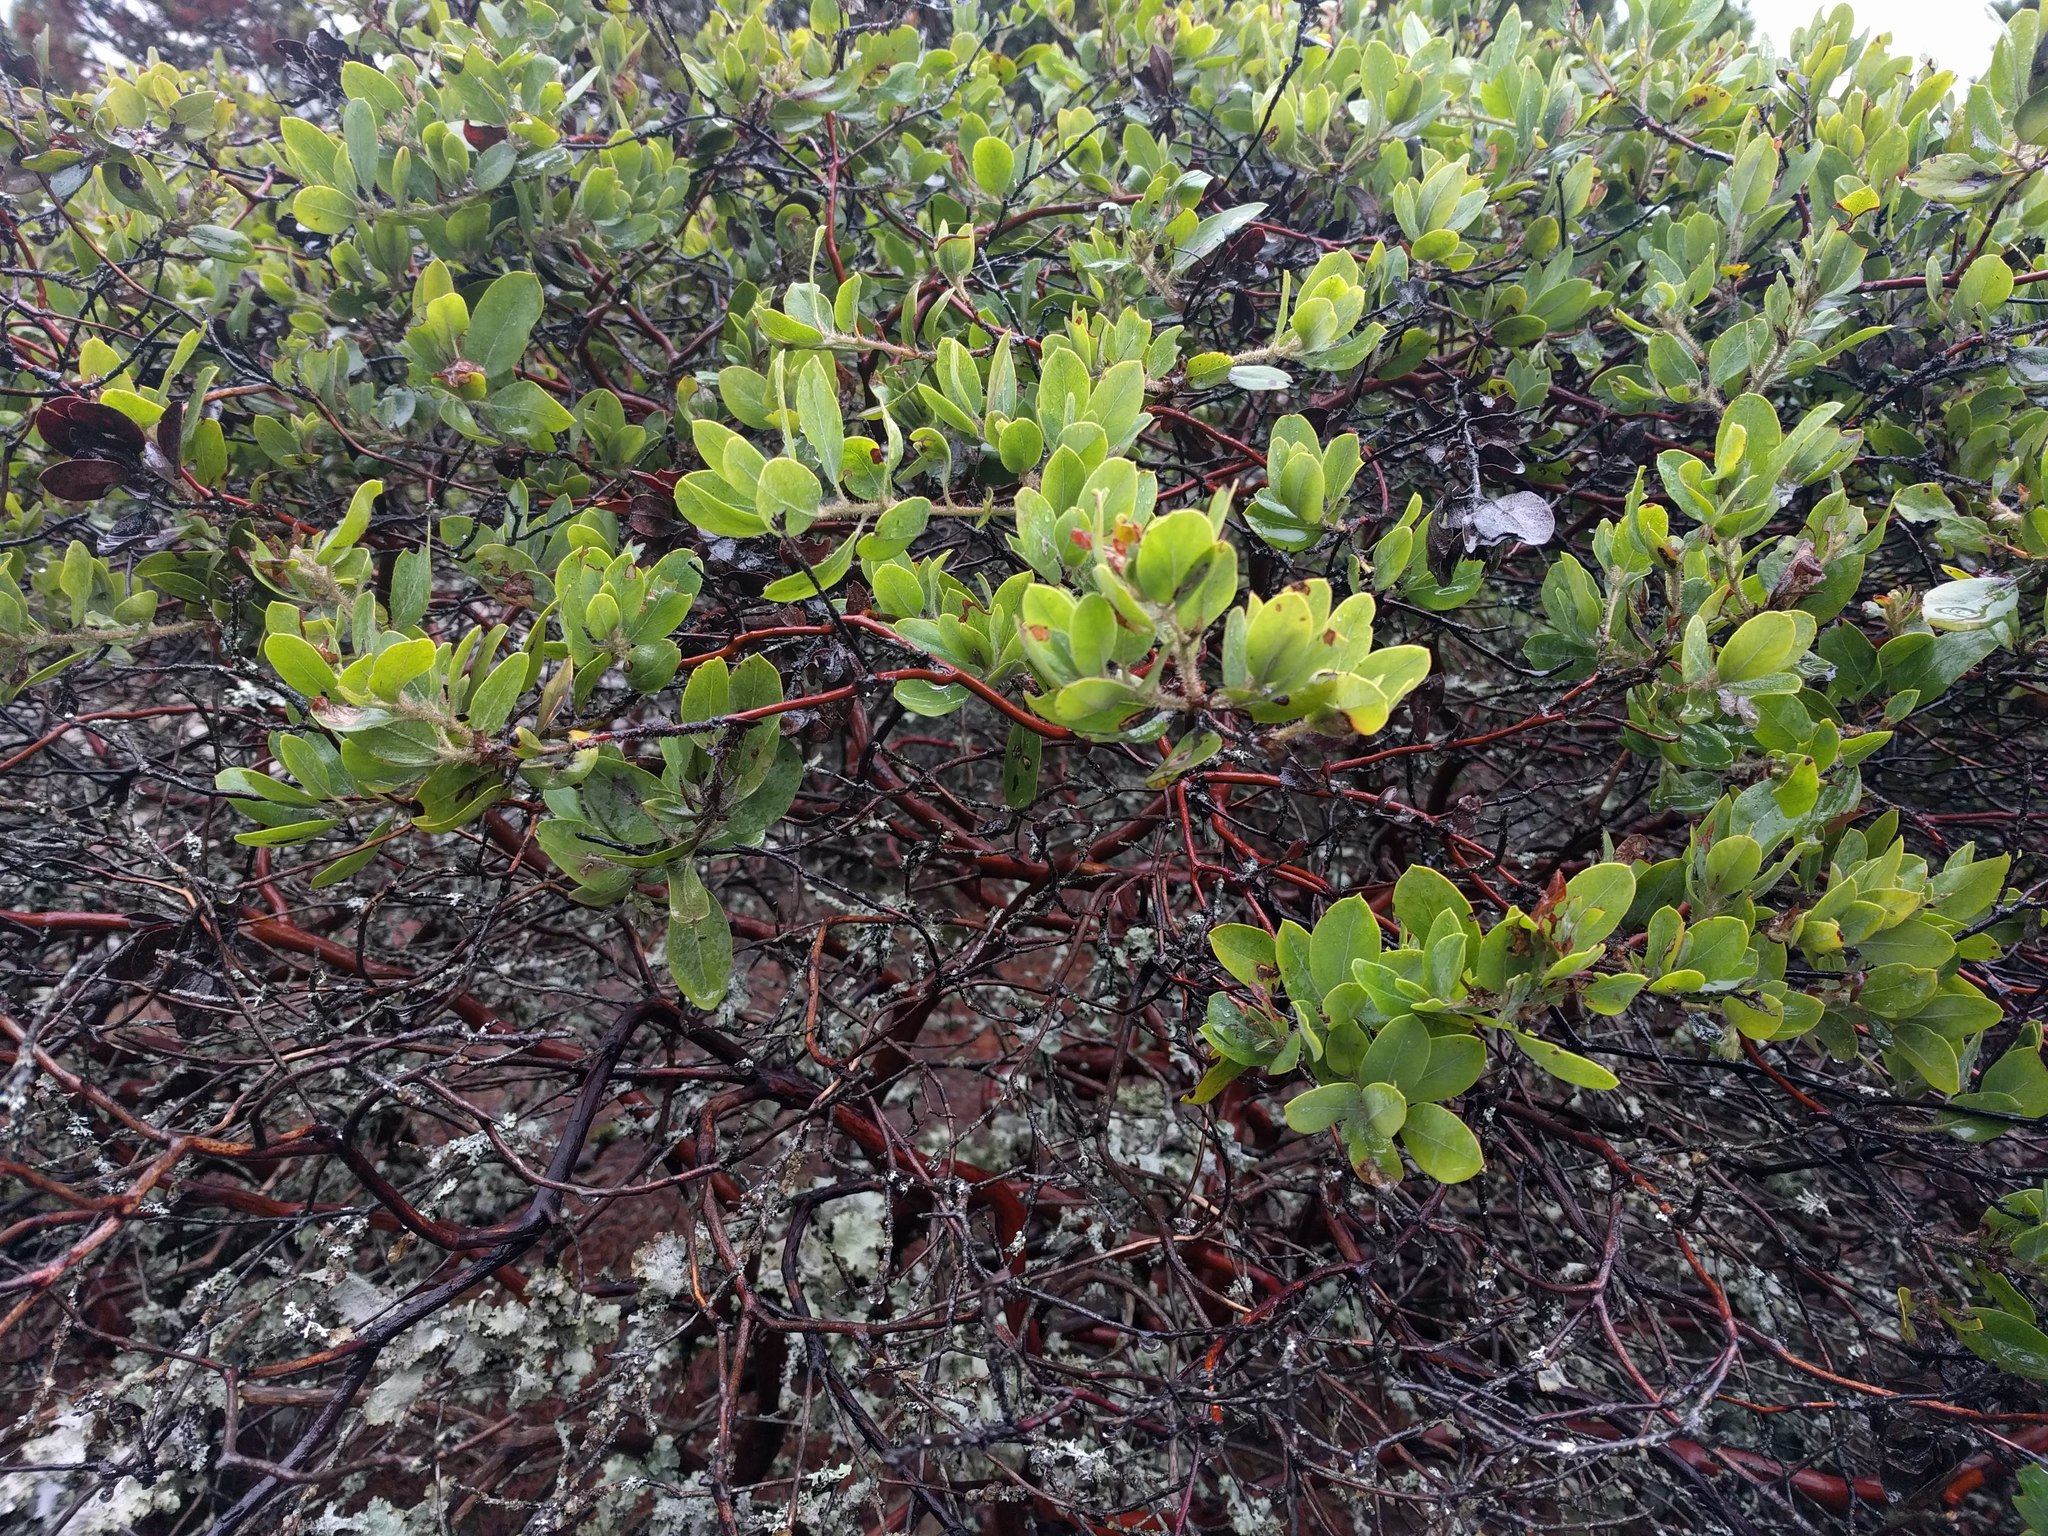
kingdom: Plantae
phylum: Tracheophyta
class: Magnoliopsida
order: Ericales
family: Ericaceae
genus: Arctostaphylos
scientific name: Arctostaphylos columbiana
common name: Bristly bearberry
